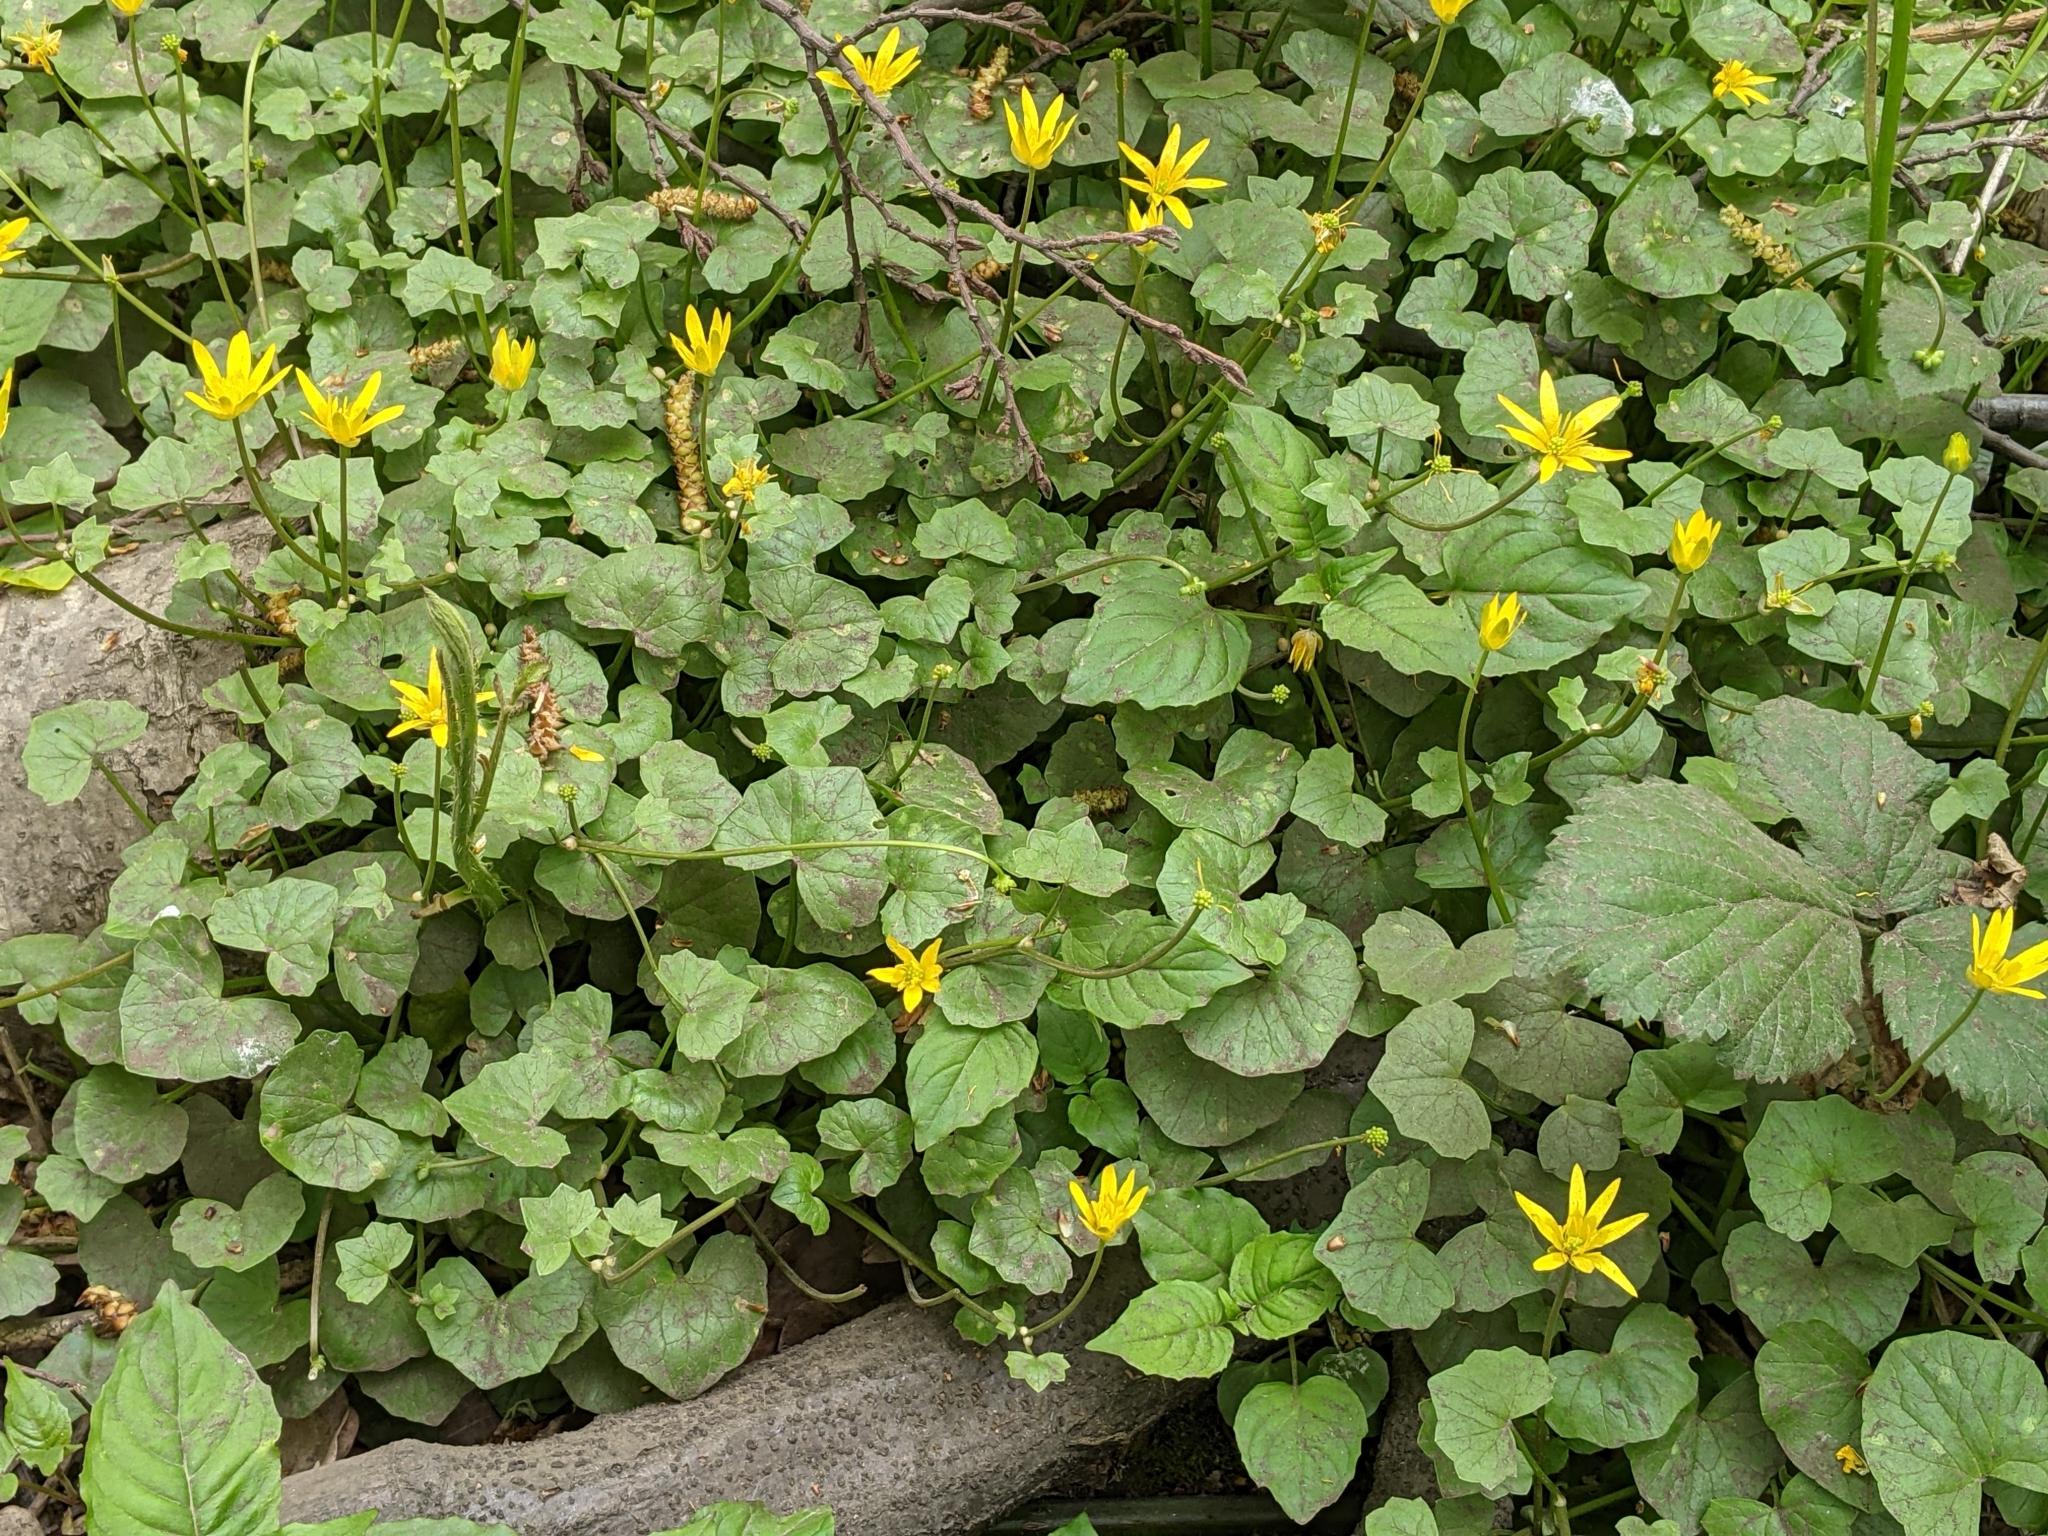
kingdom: Plantae
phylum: Tracheophyta
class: Magnoliopsida
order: Ranunculales
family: Ranunculaceae
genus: Ficaria
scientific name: Ficaria verna
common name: Lesser celandine
